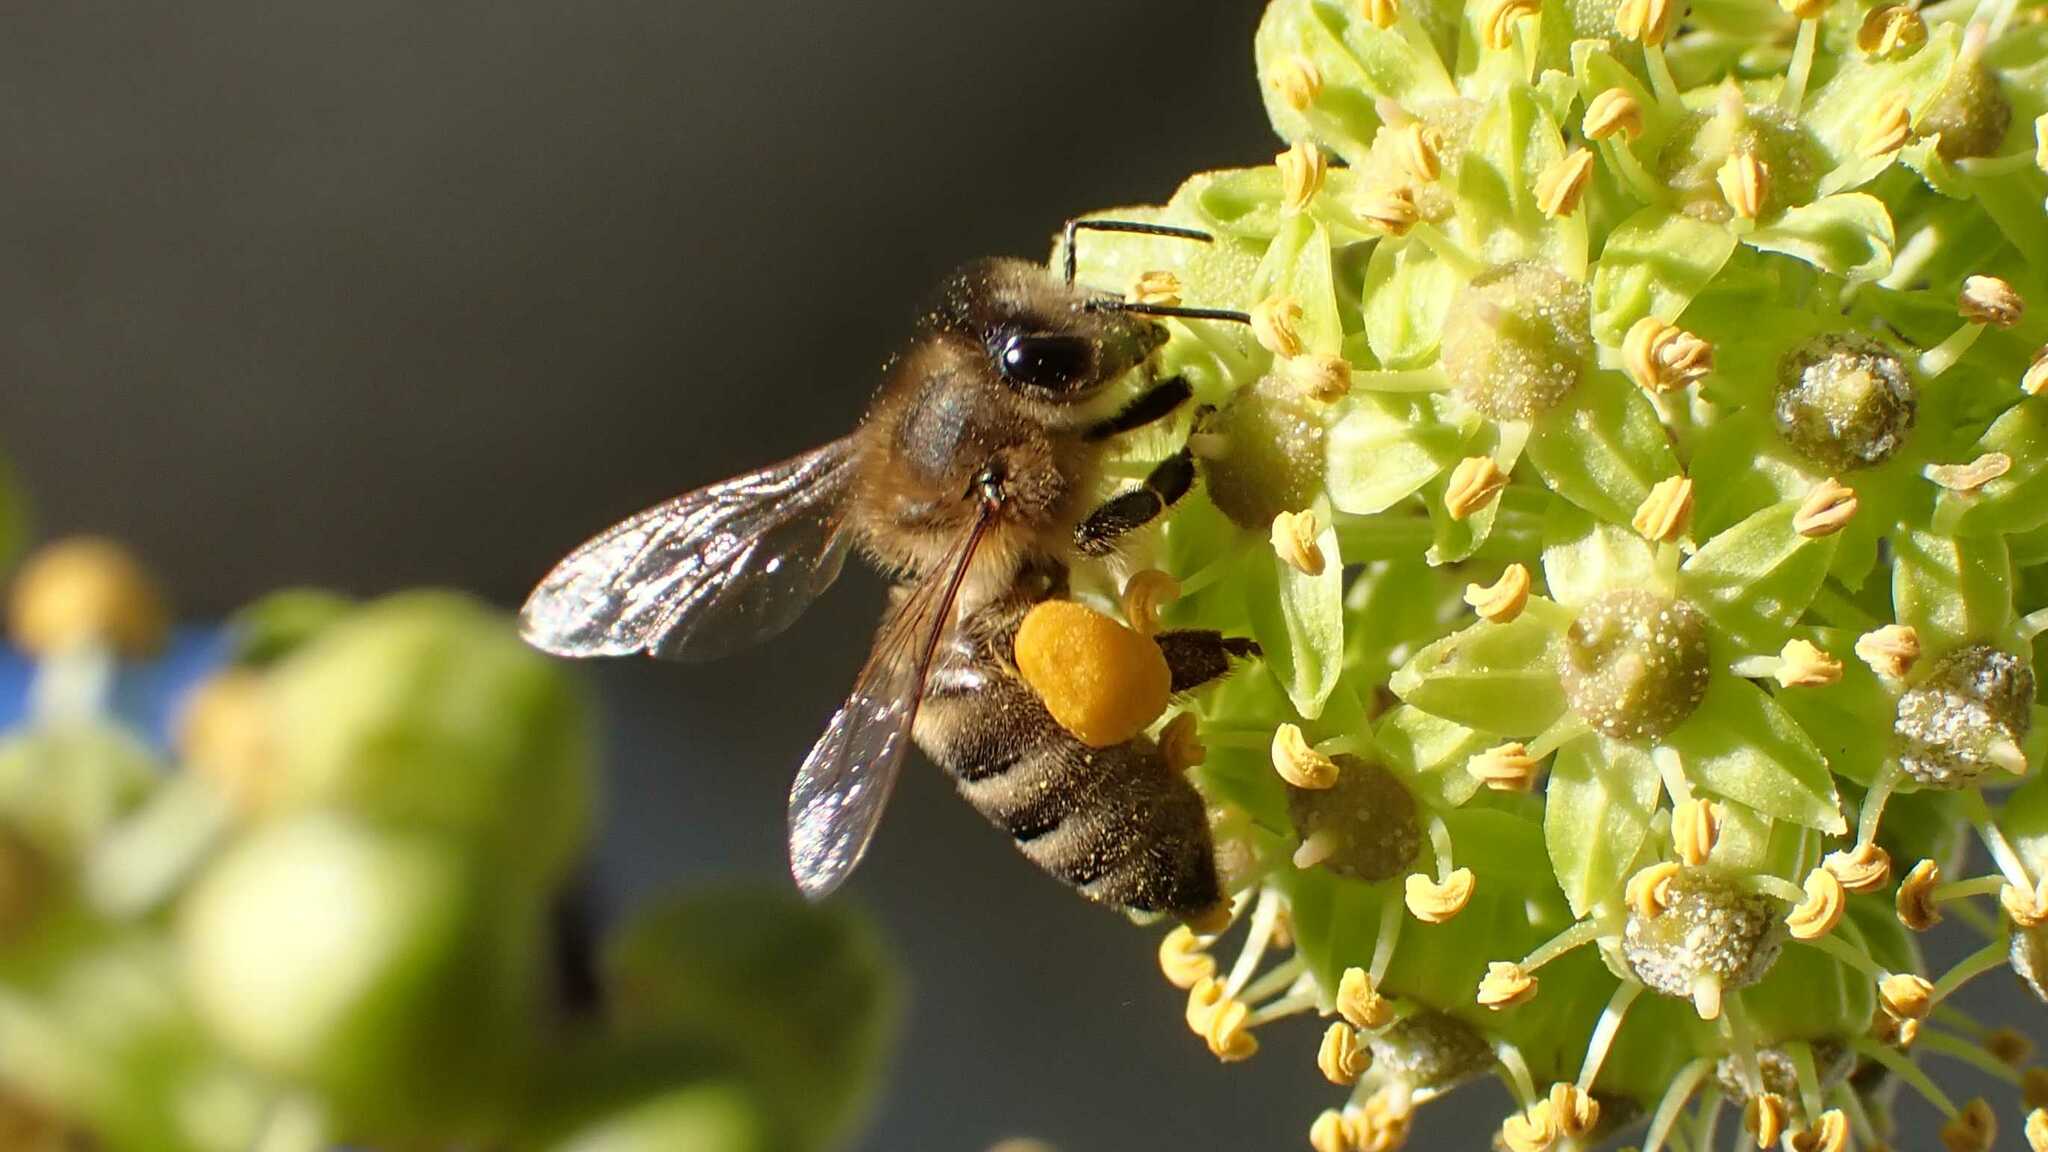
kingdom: Animalia
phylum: Arthropoda
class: Insecta
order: Hymenoptera
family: Apidae
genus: Apis
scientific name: Apis mellifera
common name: Honey bee
